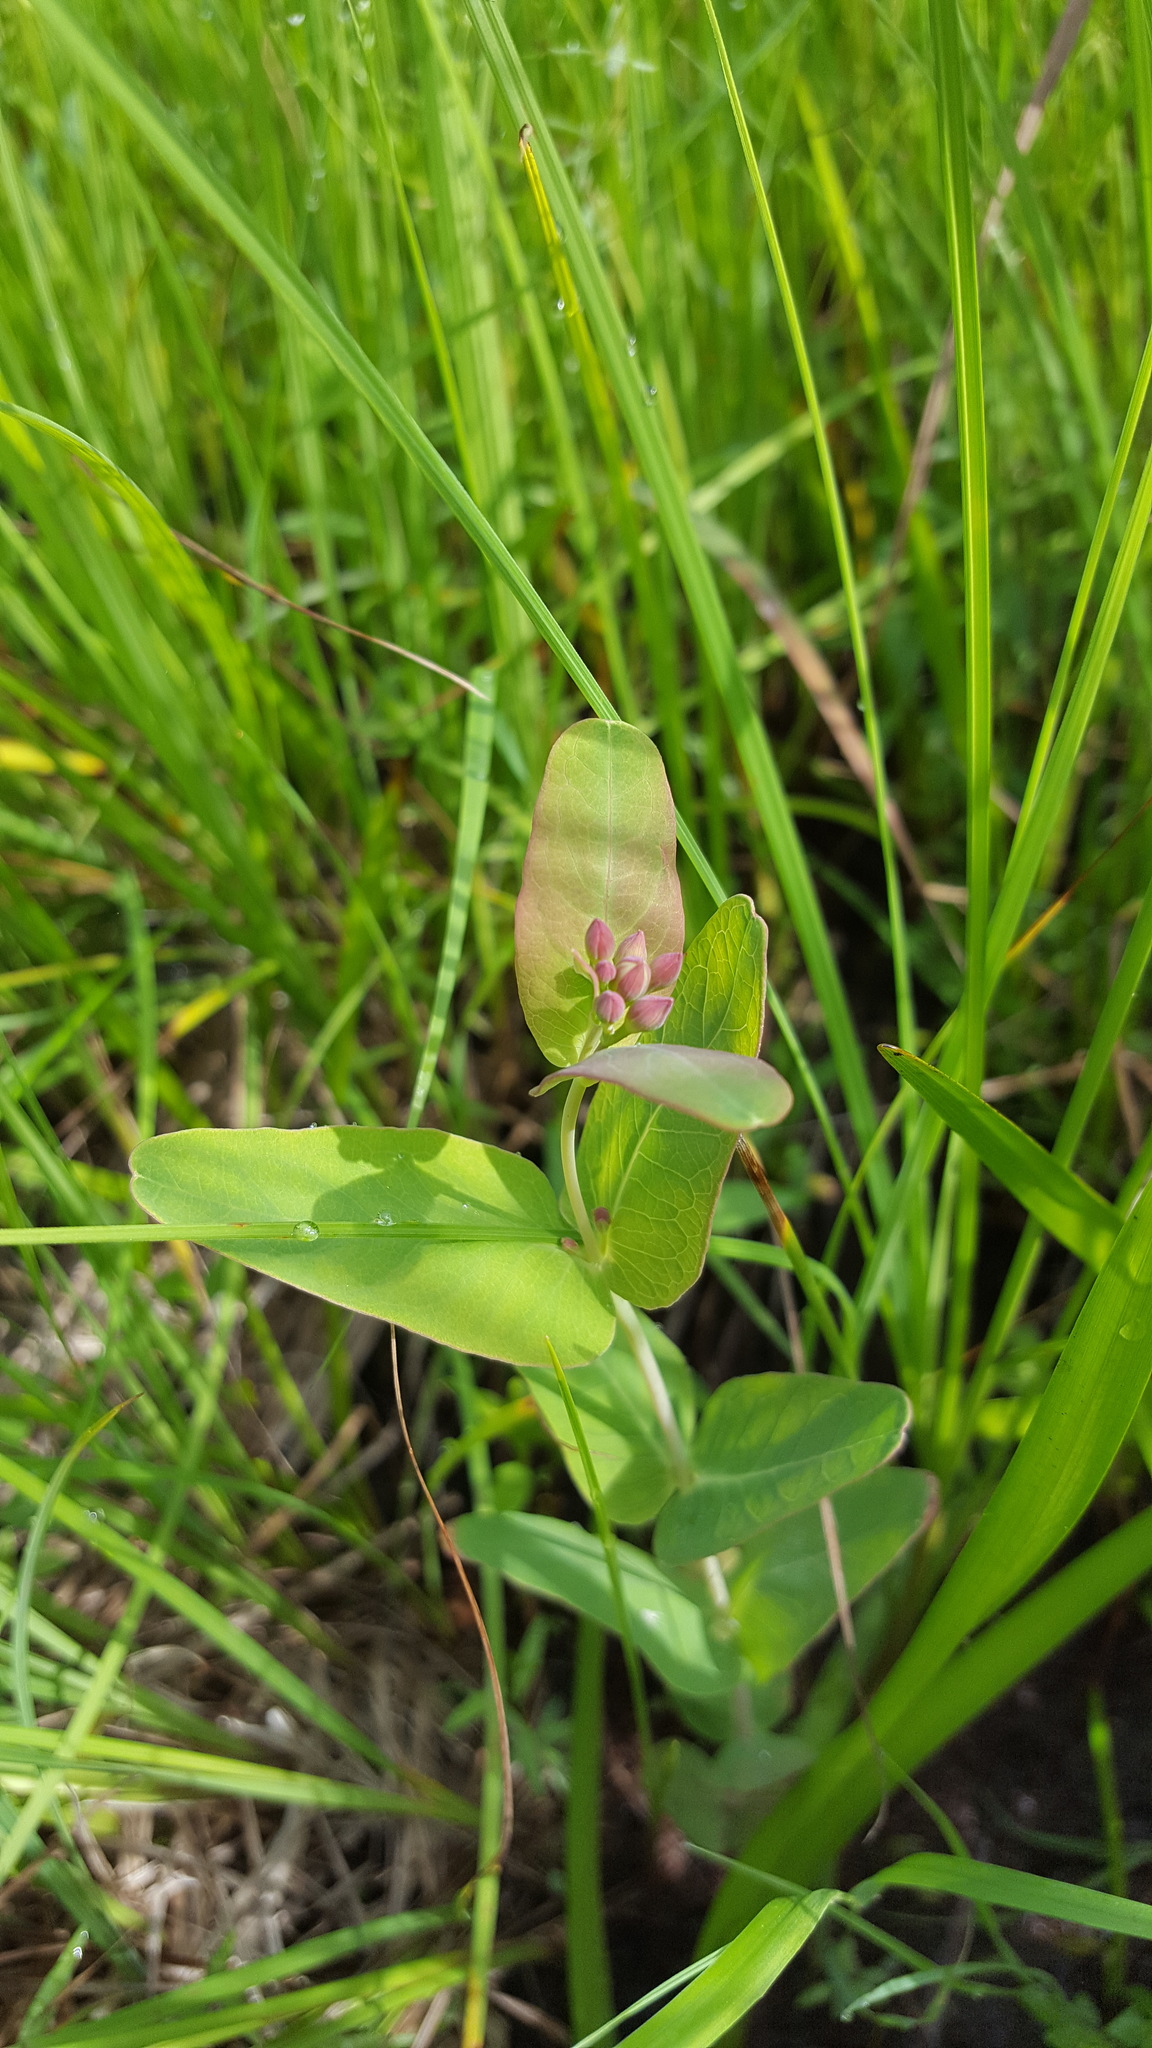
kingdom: Plantae
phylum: Tracheophyta
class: Magnoliopsida
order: Malpighiales
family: Hypericaceae
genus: Triadenum
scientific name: Triadenum fraseri
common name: Fraser's marsh st. johnswort
